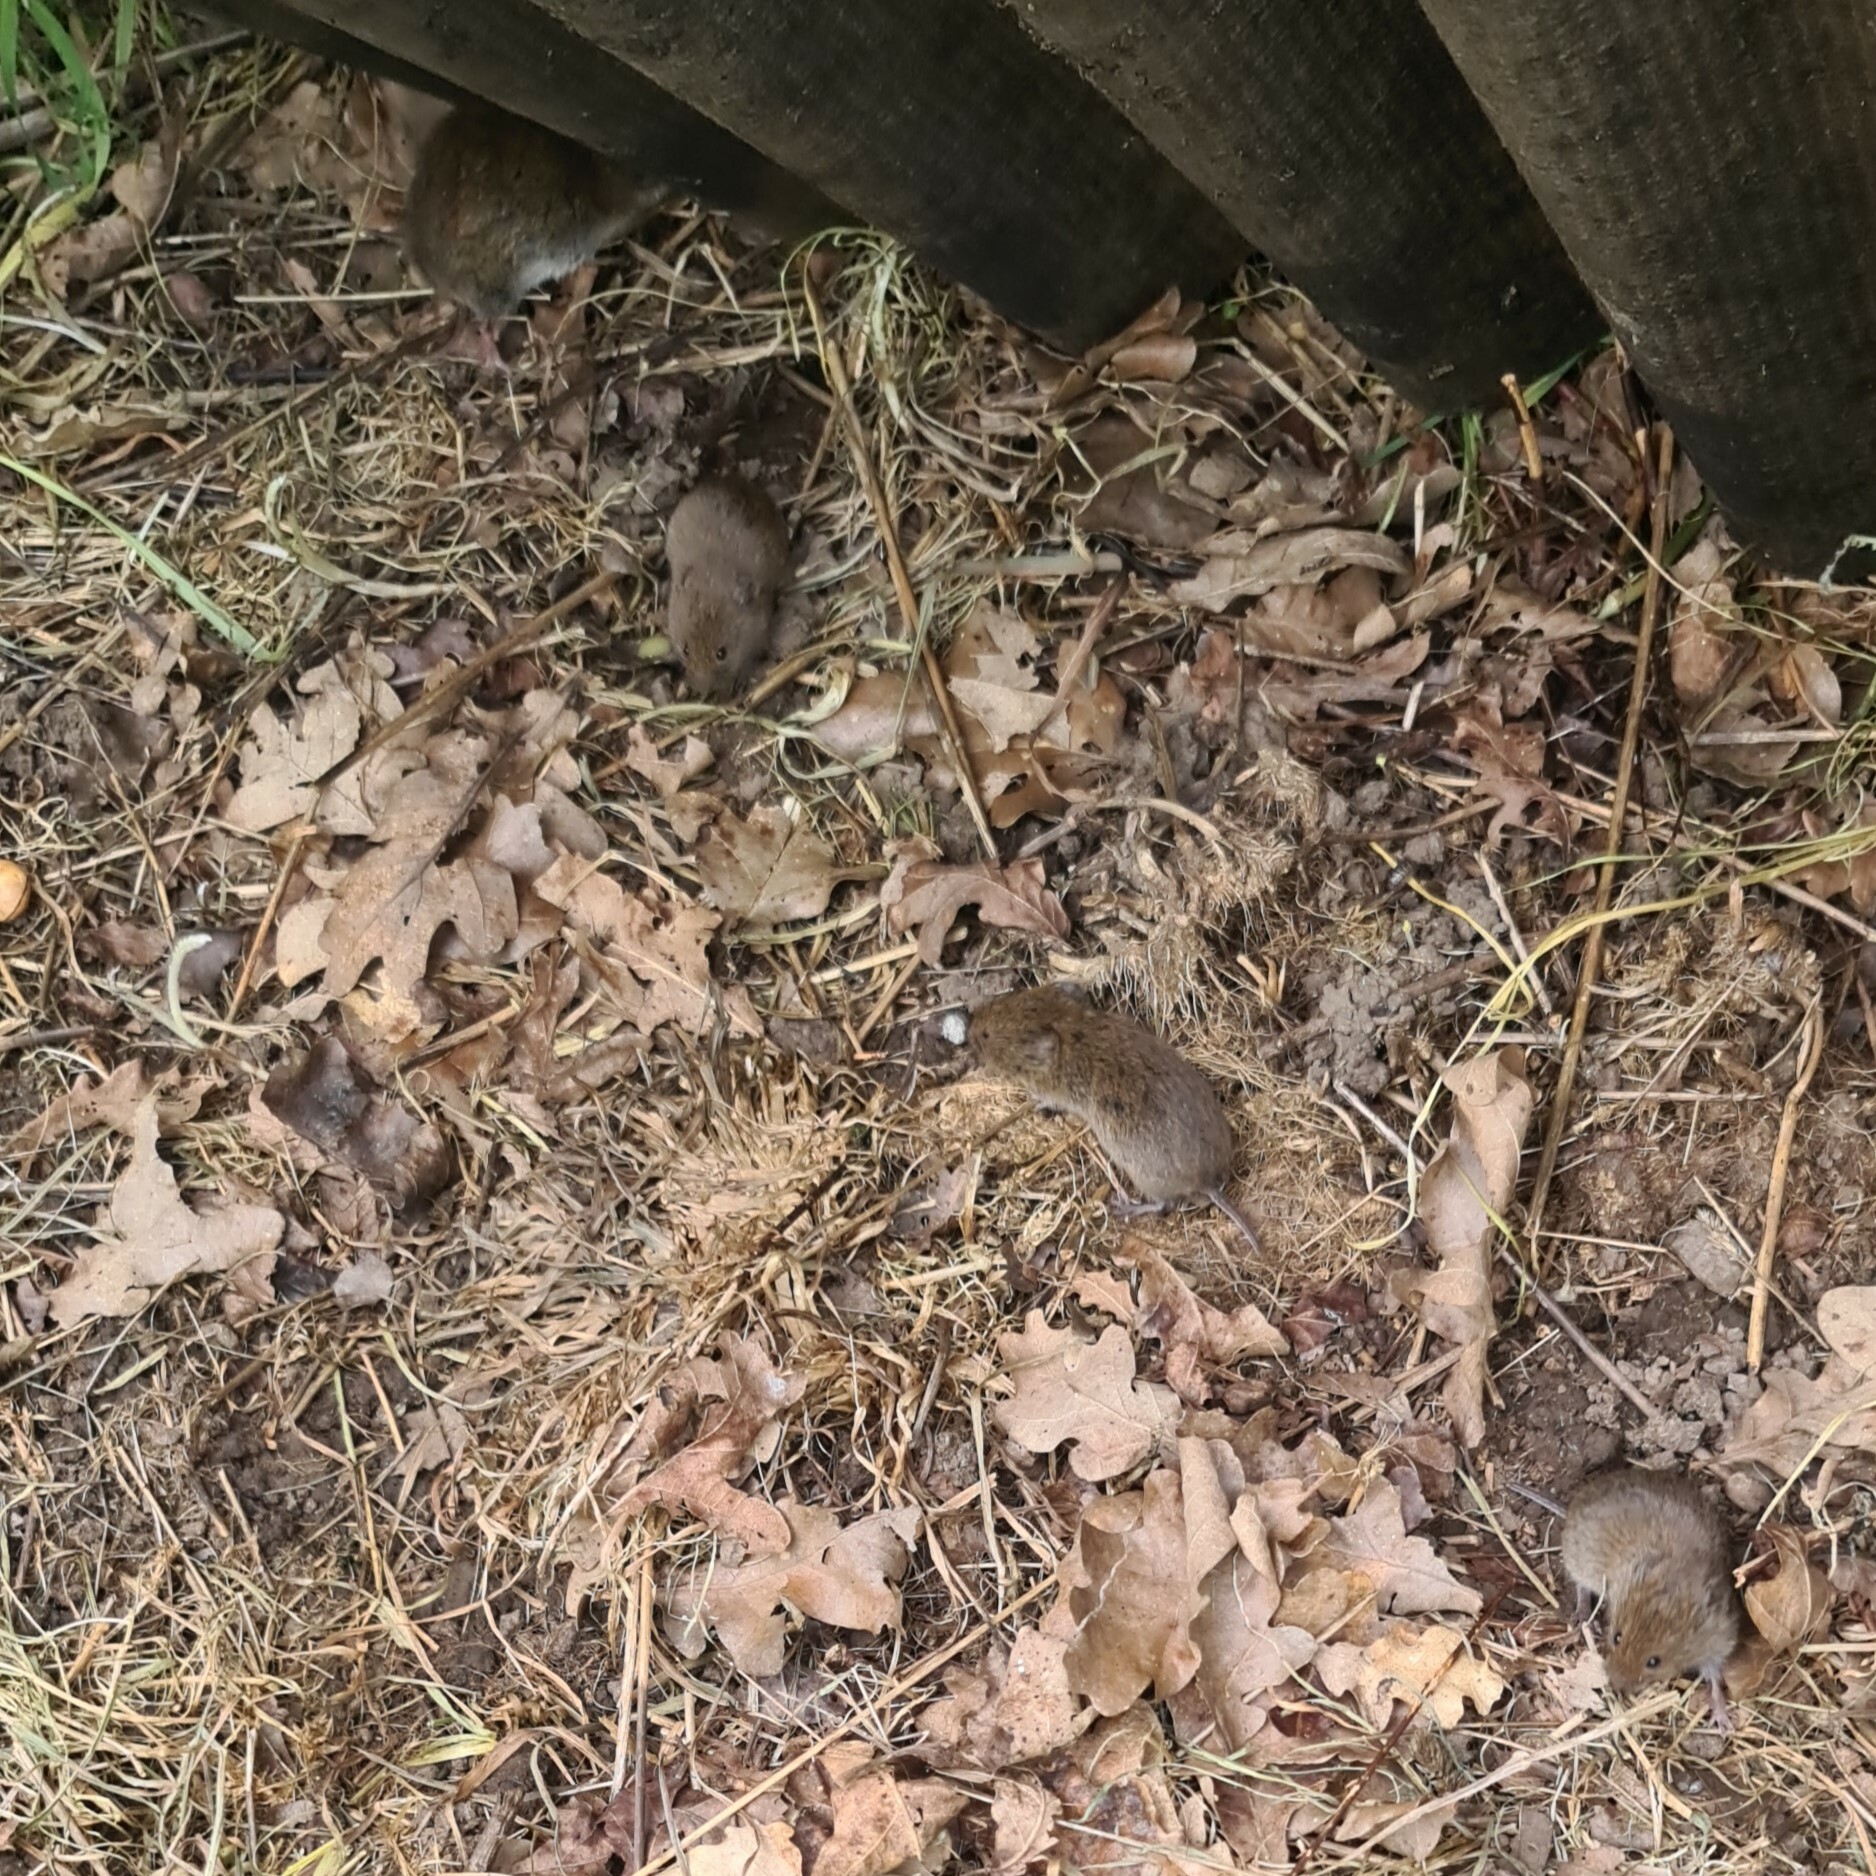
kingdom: Animalia
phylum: Chordata
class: Mammalia
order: Rodentia
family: Cricetidae
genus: Microtus
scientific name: Microtus agrestis
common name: Field vole
